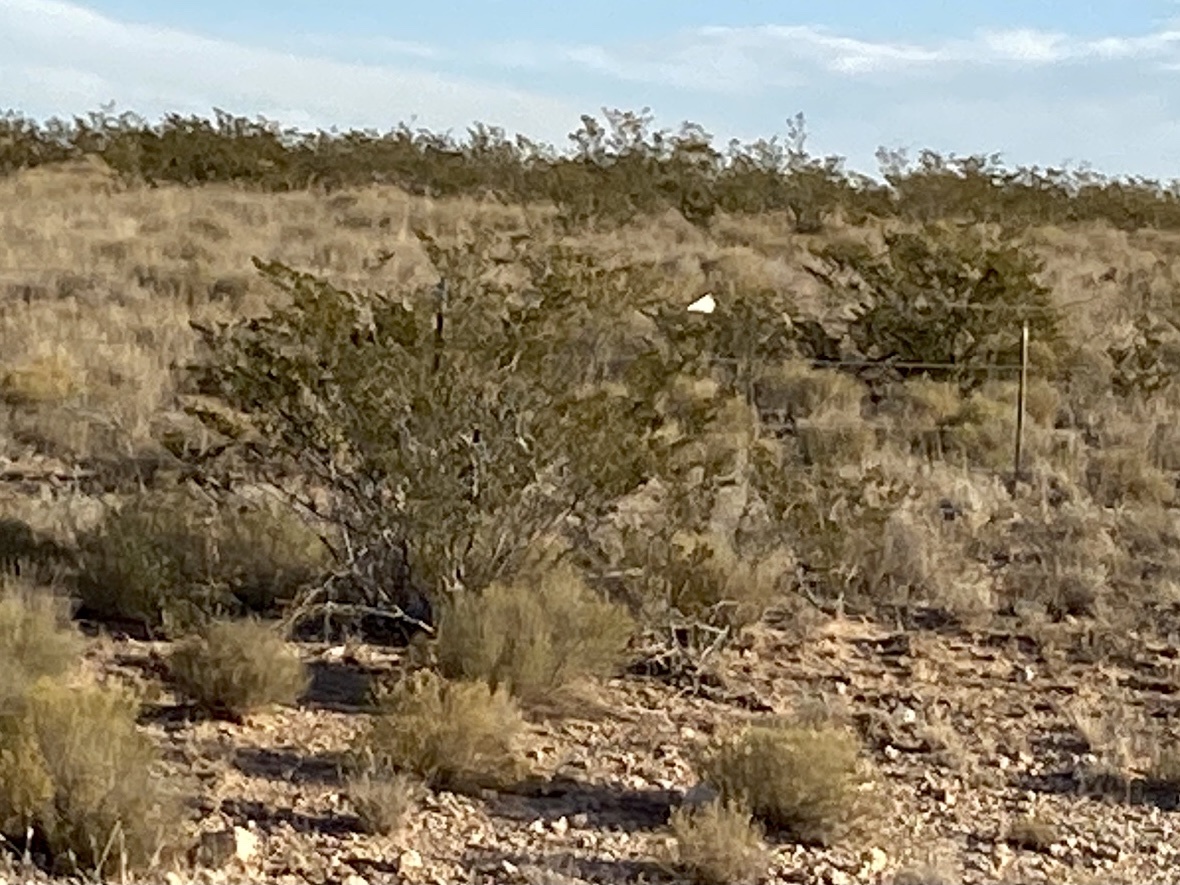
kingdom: Plantae
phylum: Tracheophyta
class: Magnoliopsida
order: Zygophyllales
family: Zygophyllaceae
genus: Larrea
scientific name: Larrea tridentata
